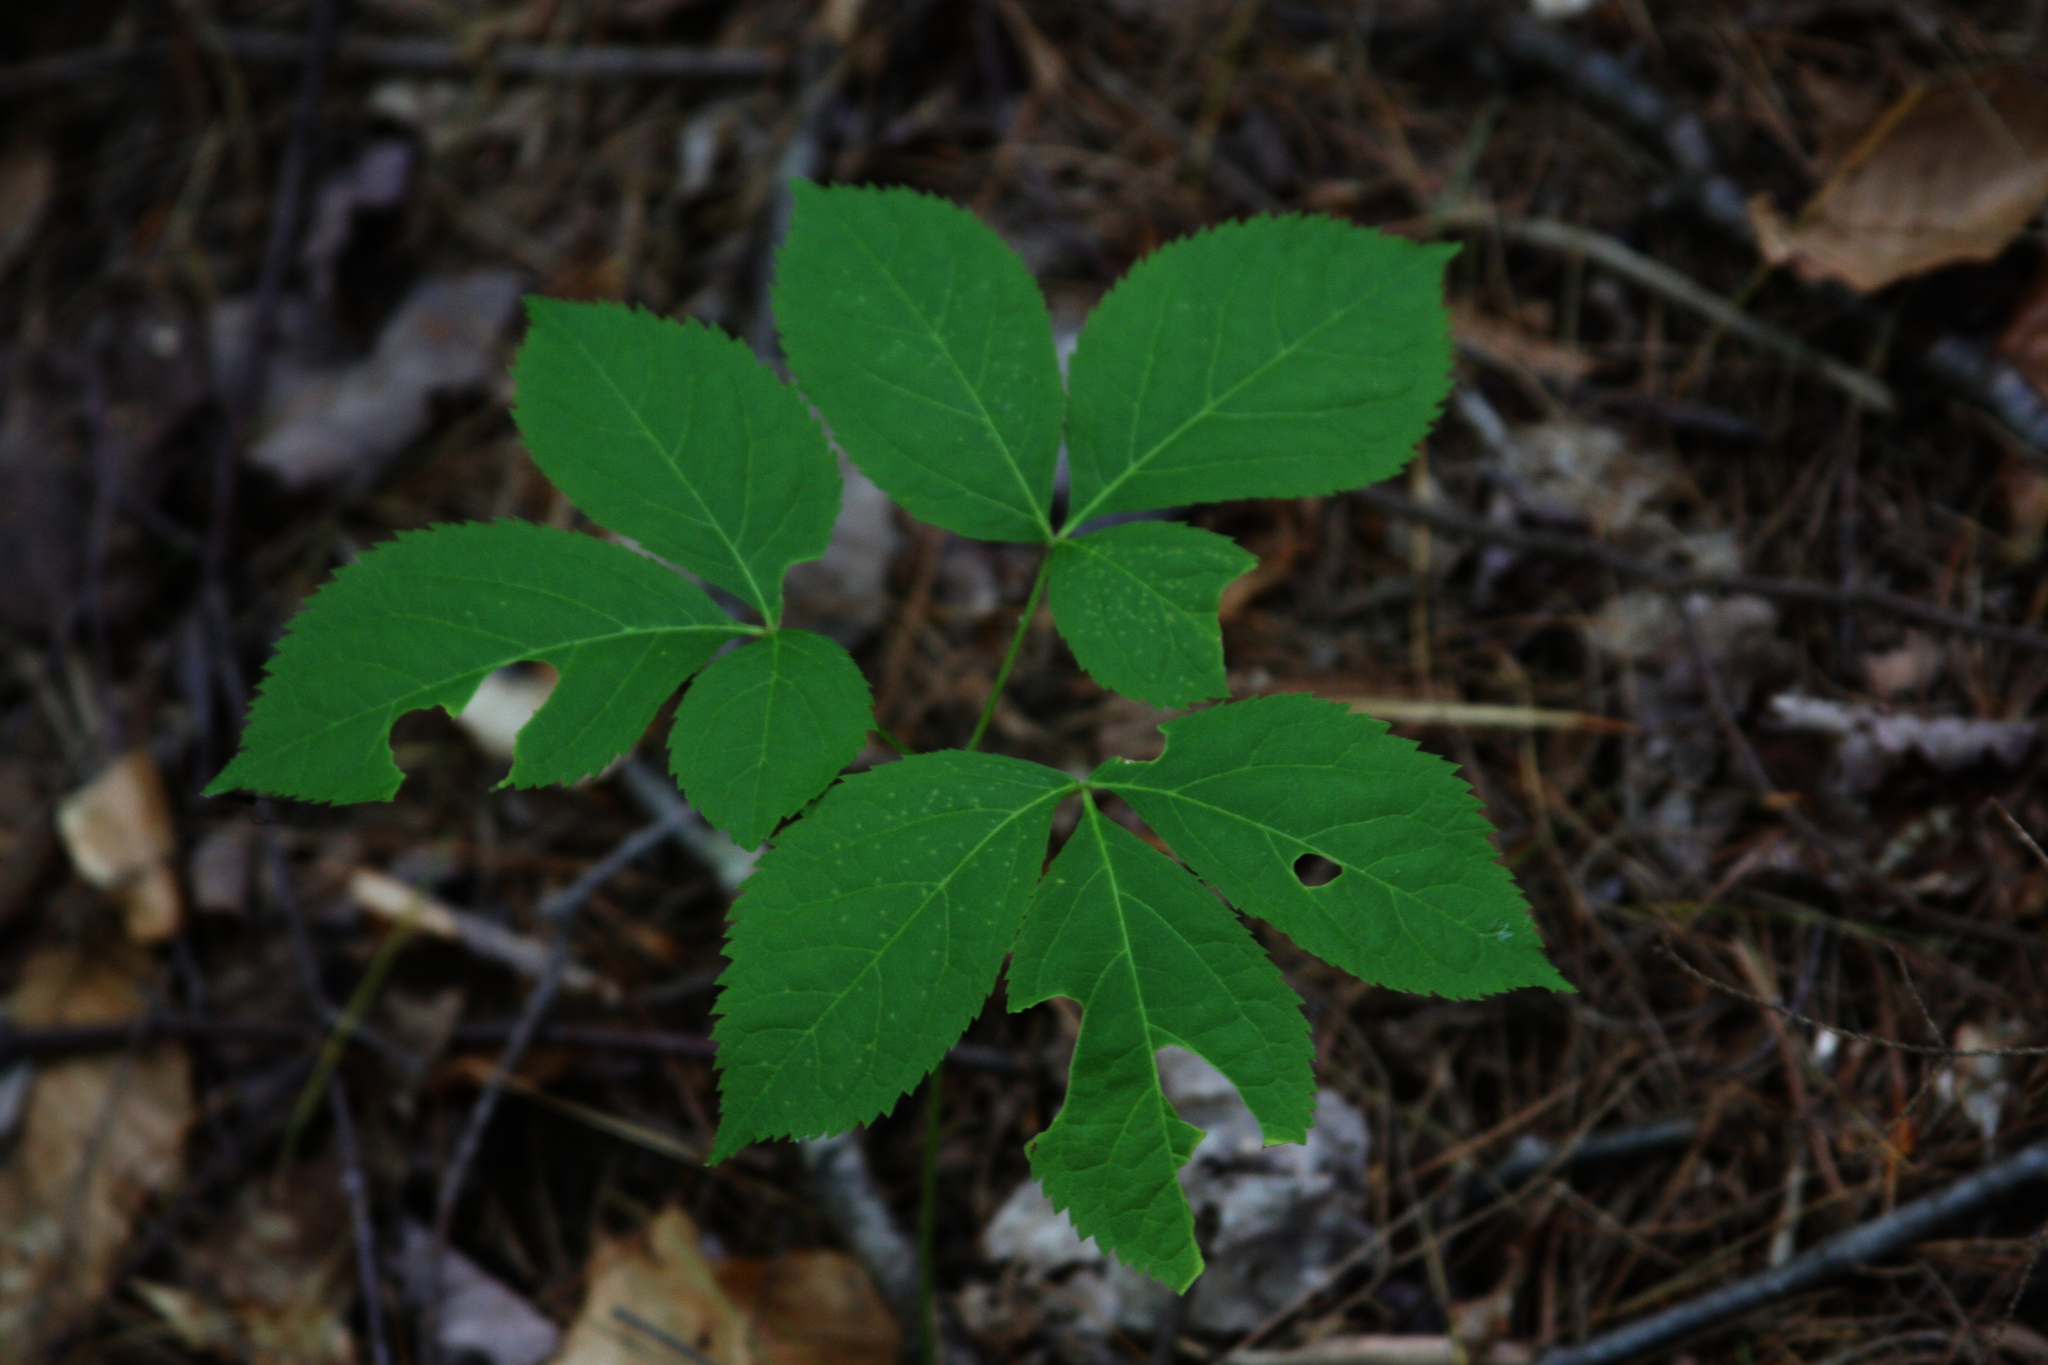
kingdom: Plantae
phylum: Tracheophyta
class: Magnoliopsida
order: Apiales
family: Araliaceae
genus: Aralia
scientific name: Aralia nudicaulis
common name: Wild sarsaparilla
